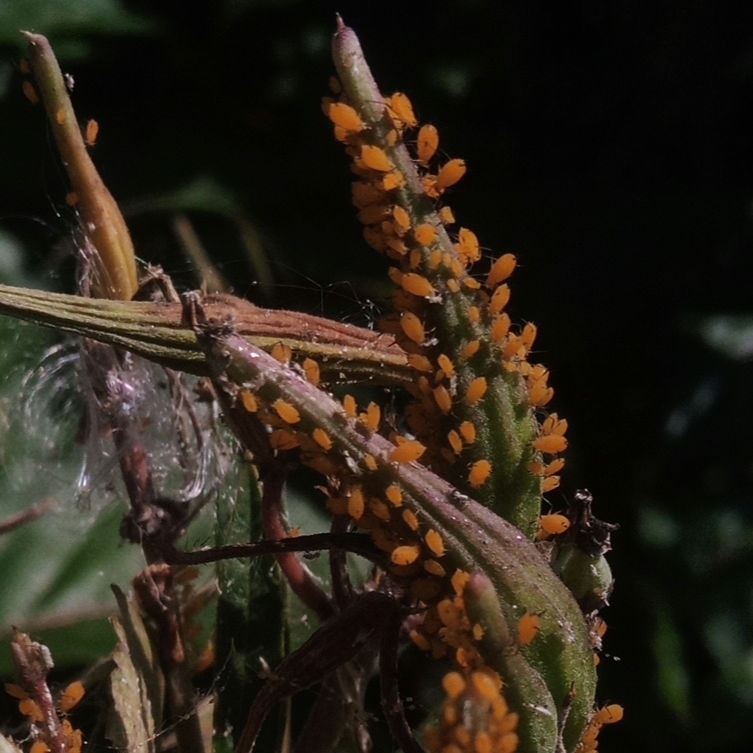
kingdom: Animalia
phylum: Arthropoda
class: Insecta
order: Hemiptera
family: Aphididae
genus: Aphis
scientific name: Aphis nerii
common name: Oleander aphid
